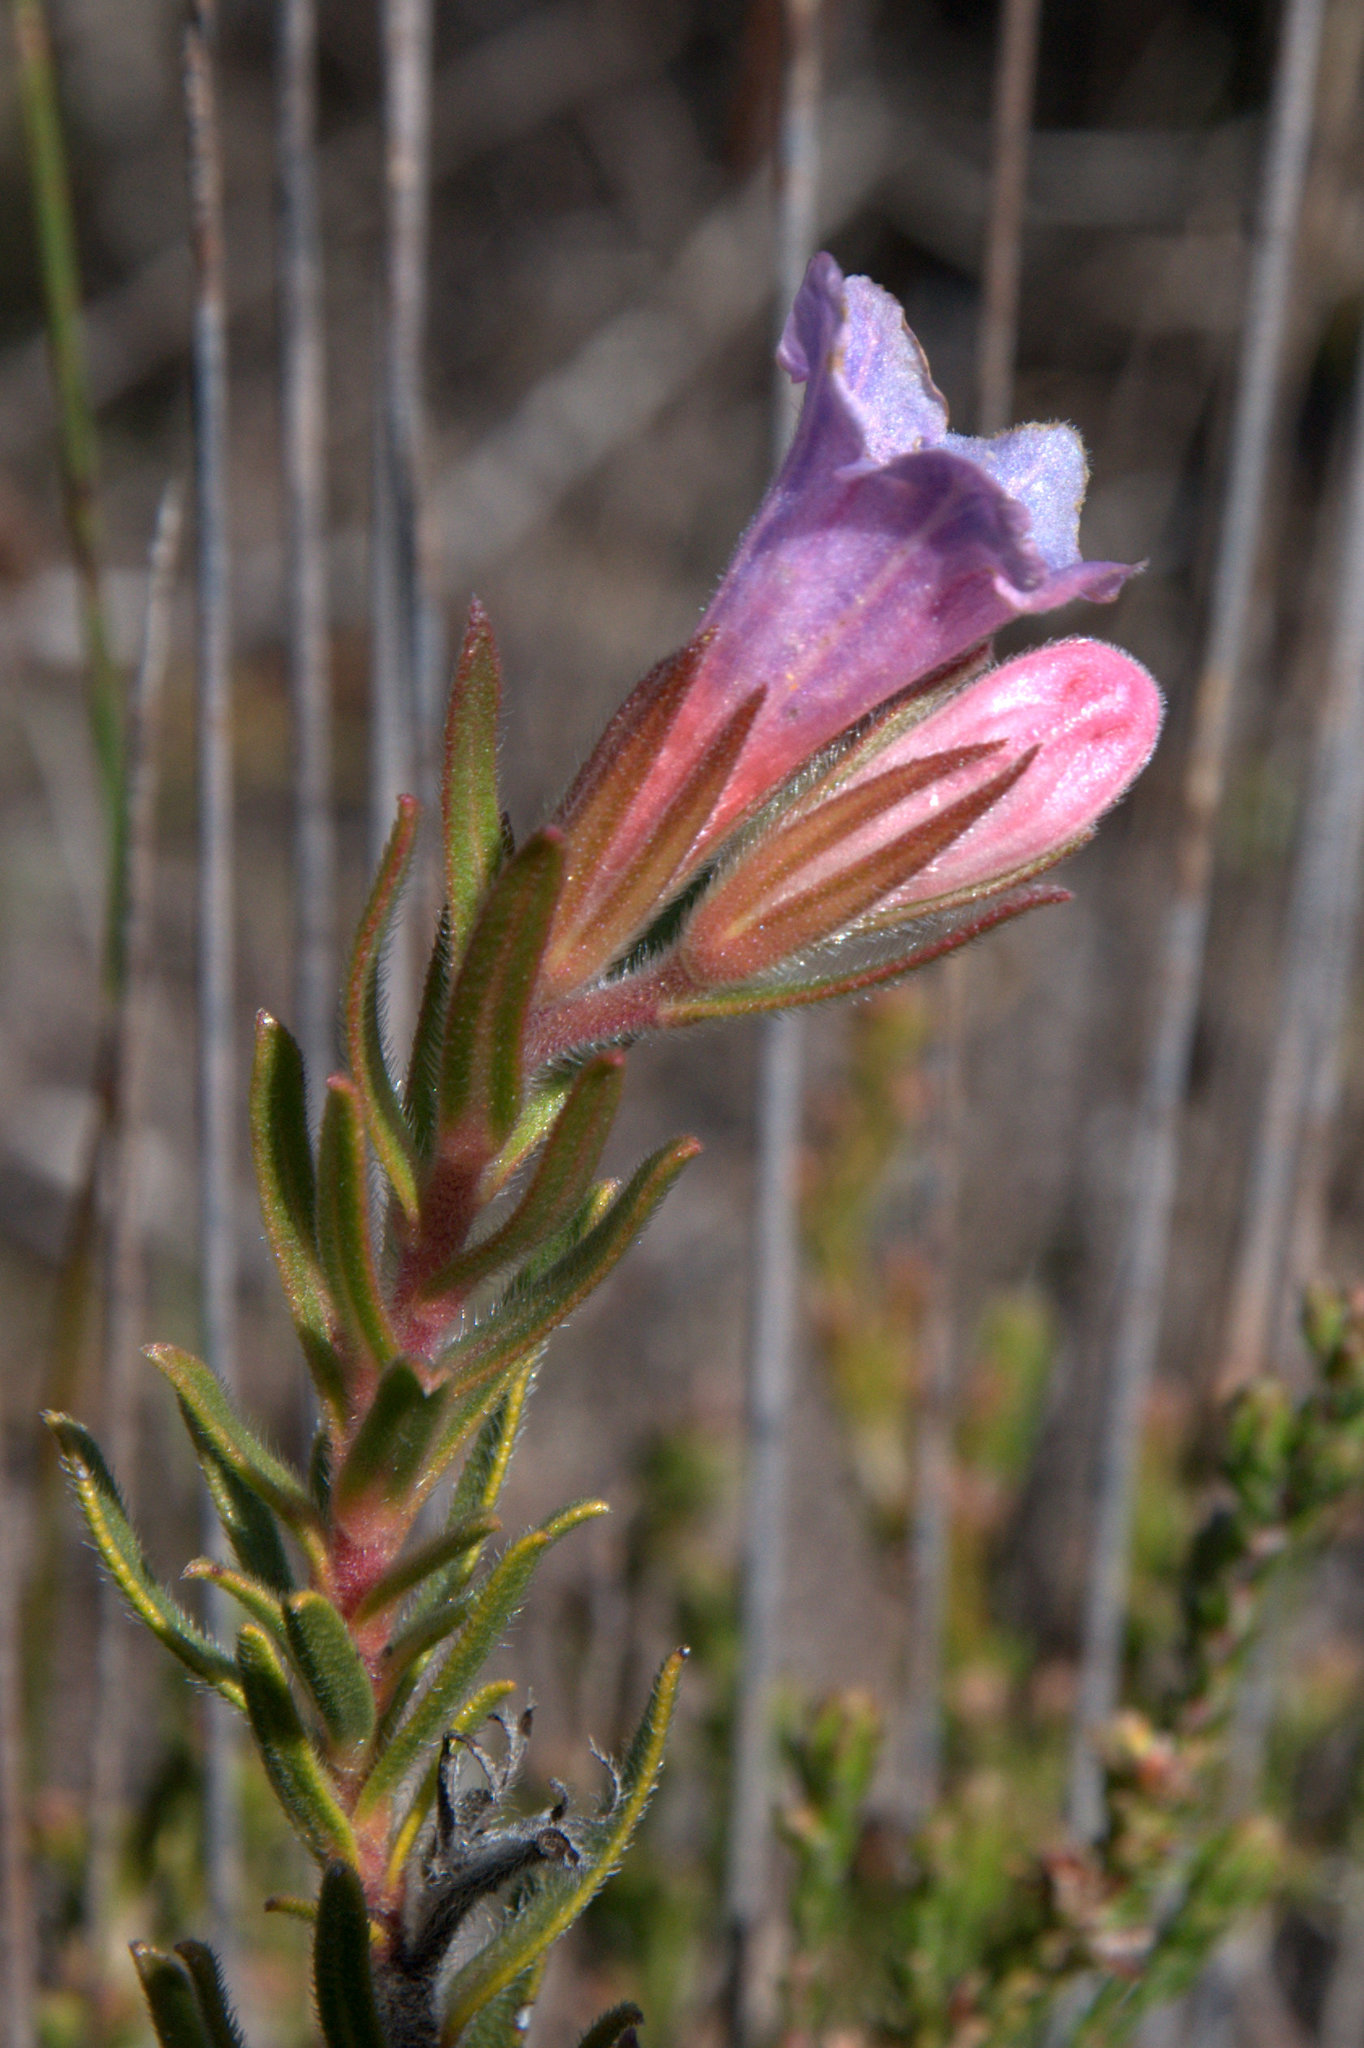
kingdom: Plantae
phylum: Tracheophyta
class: Magnoliopsida
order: Boraginales
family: Boraginaceae
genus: Lobostemon
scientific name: Lobostemon fruticosus
